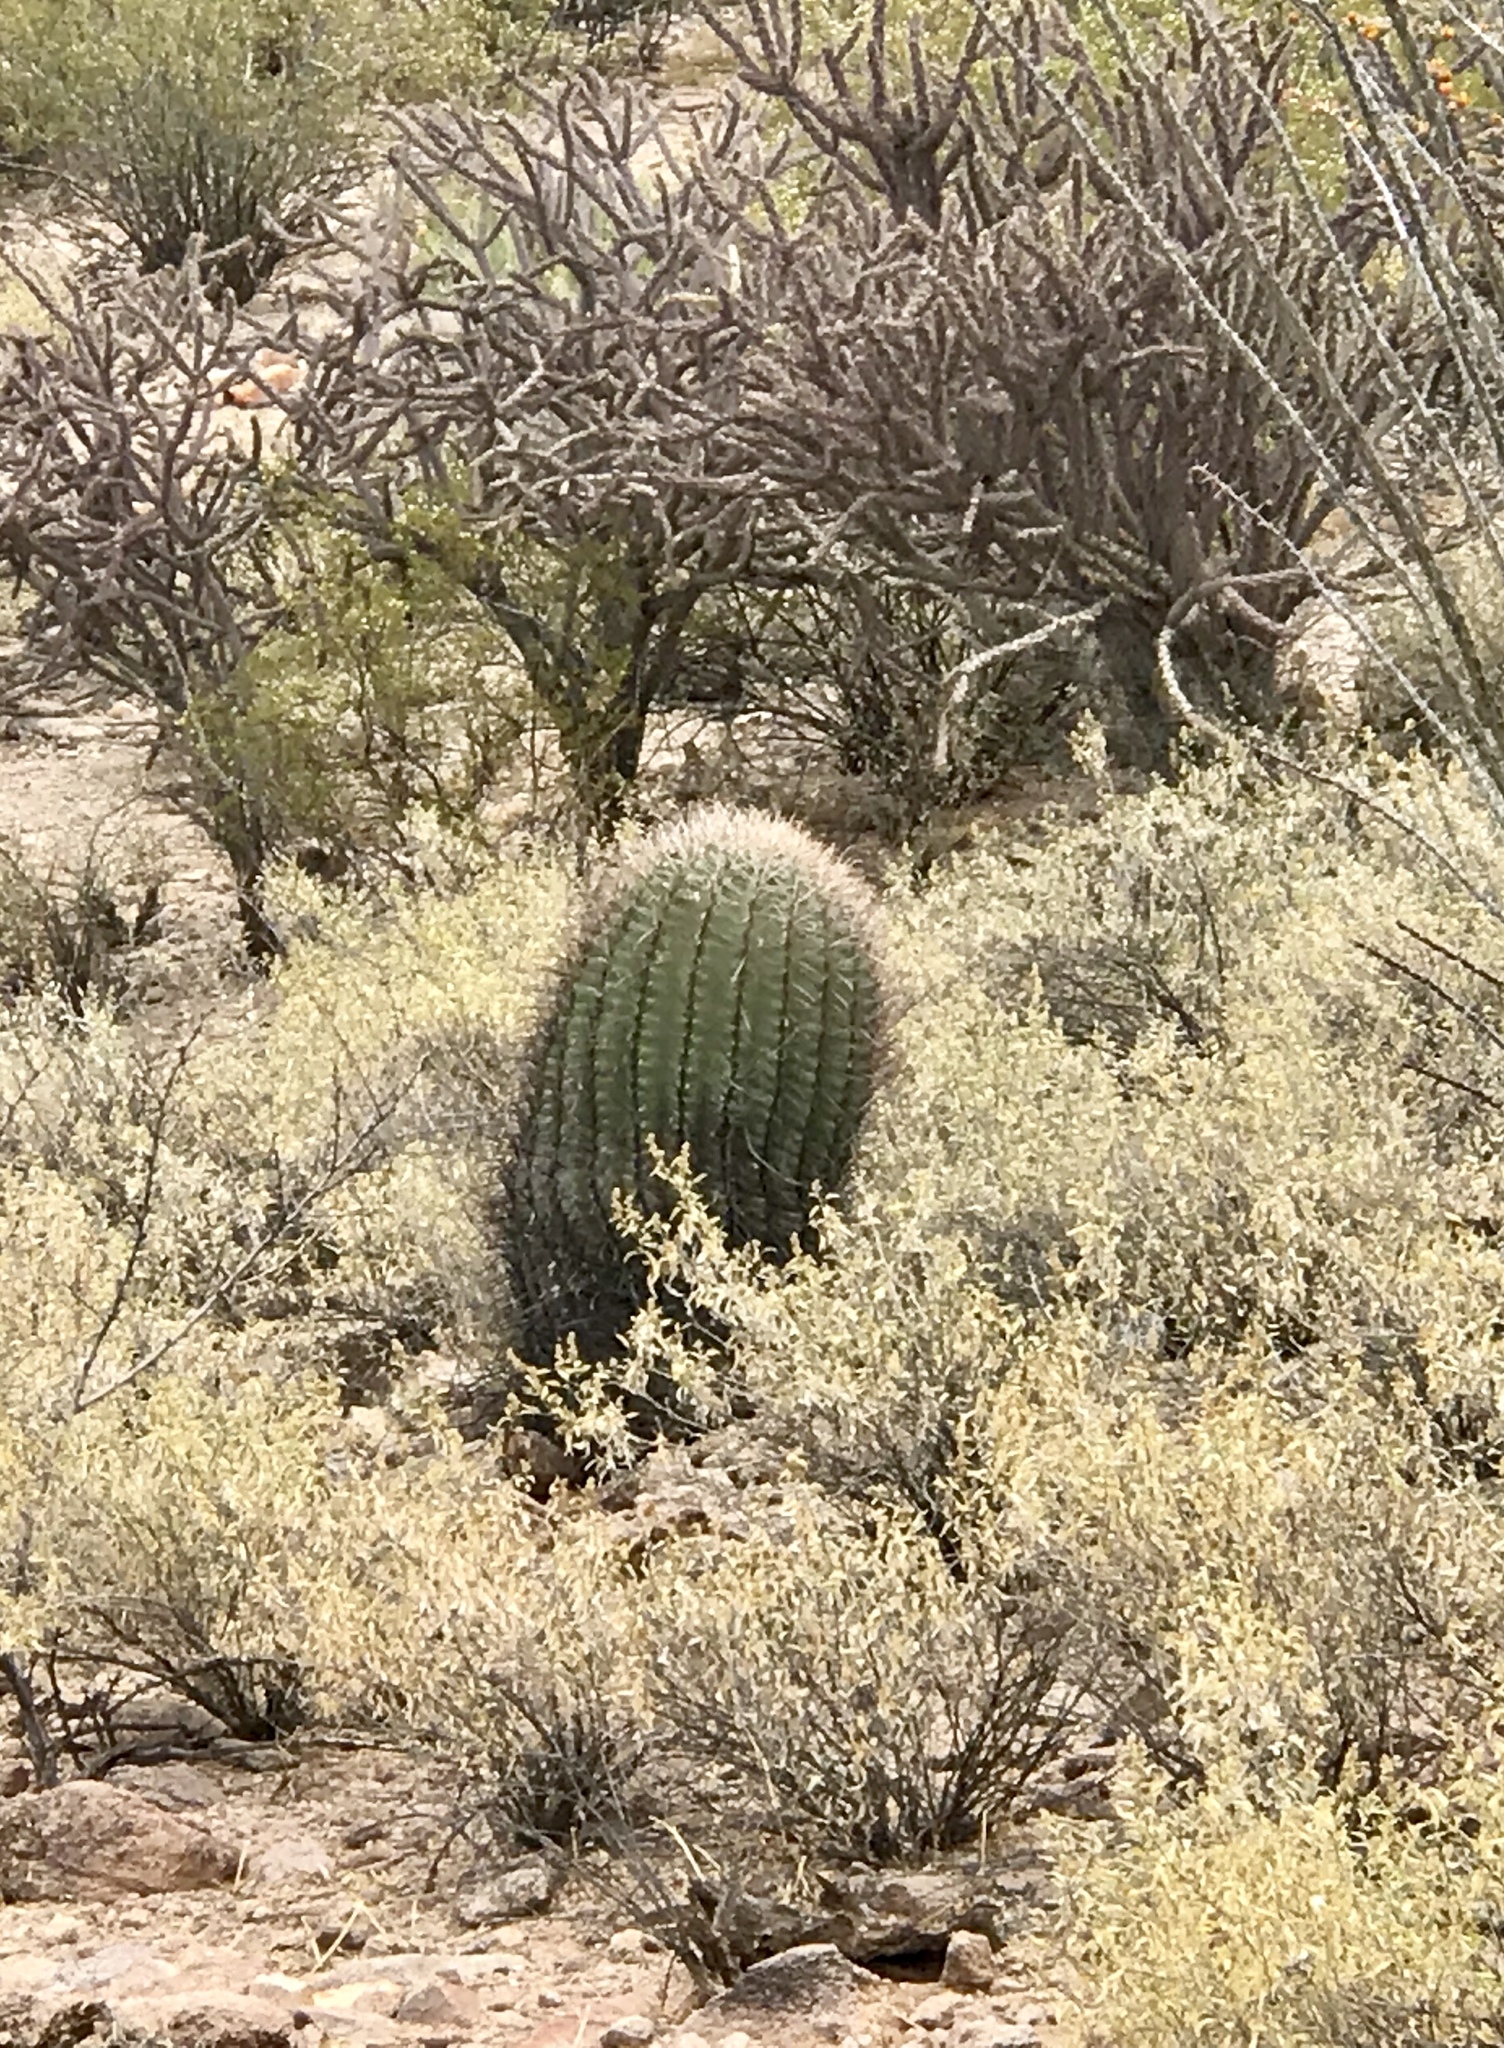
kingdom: Plantae
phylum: Tracheophyta
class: Magnoliopsida
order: Caryophyllales
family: Cactaceae
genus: Ferocactus
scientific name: Ferocactus wislizeni
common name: Candy barrel cactus
